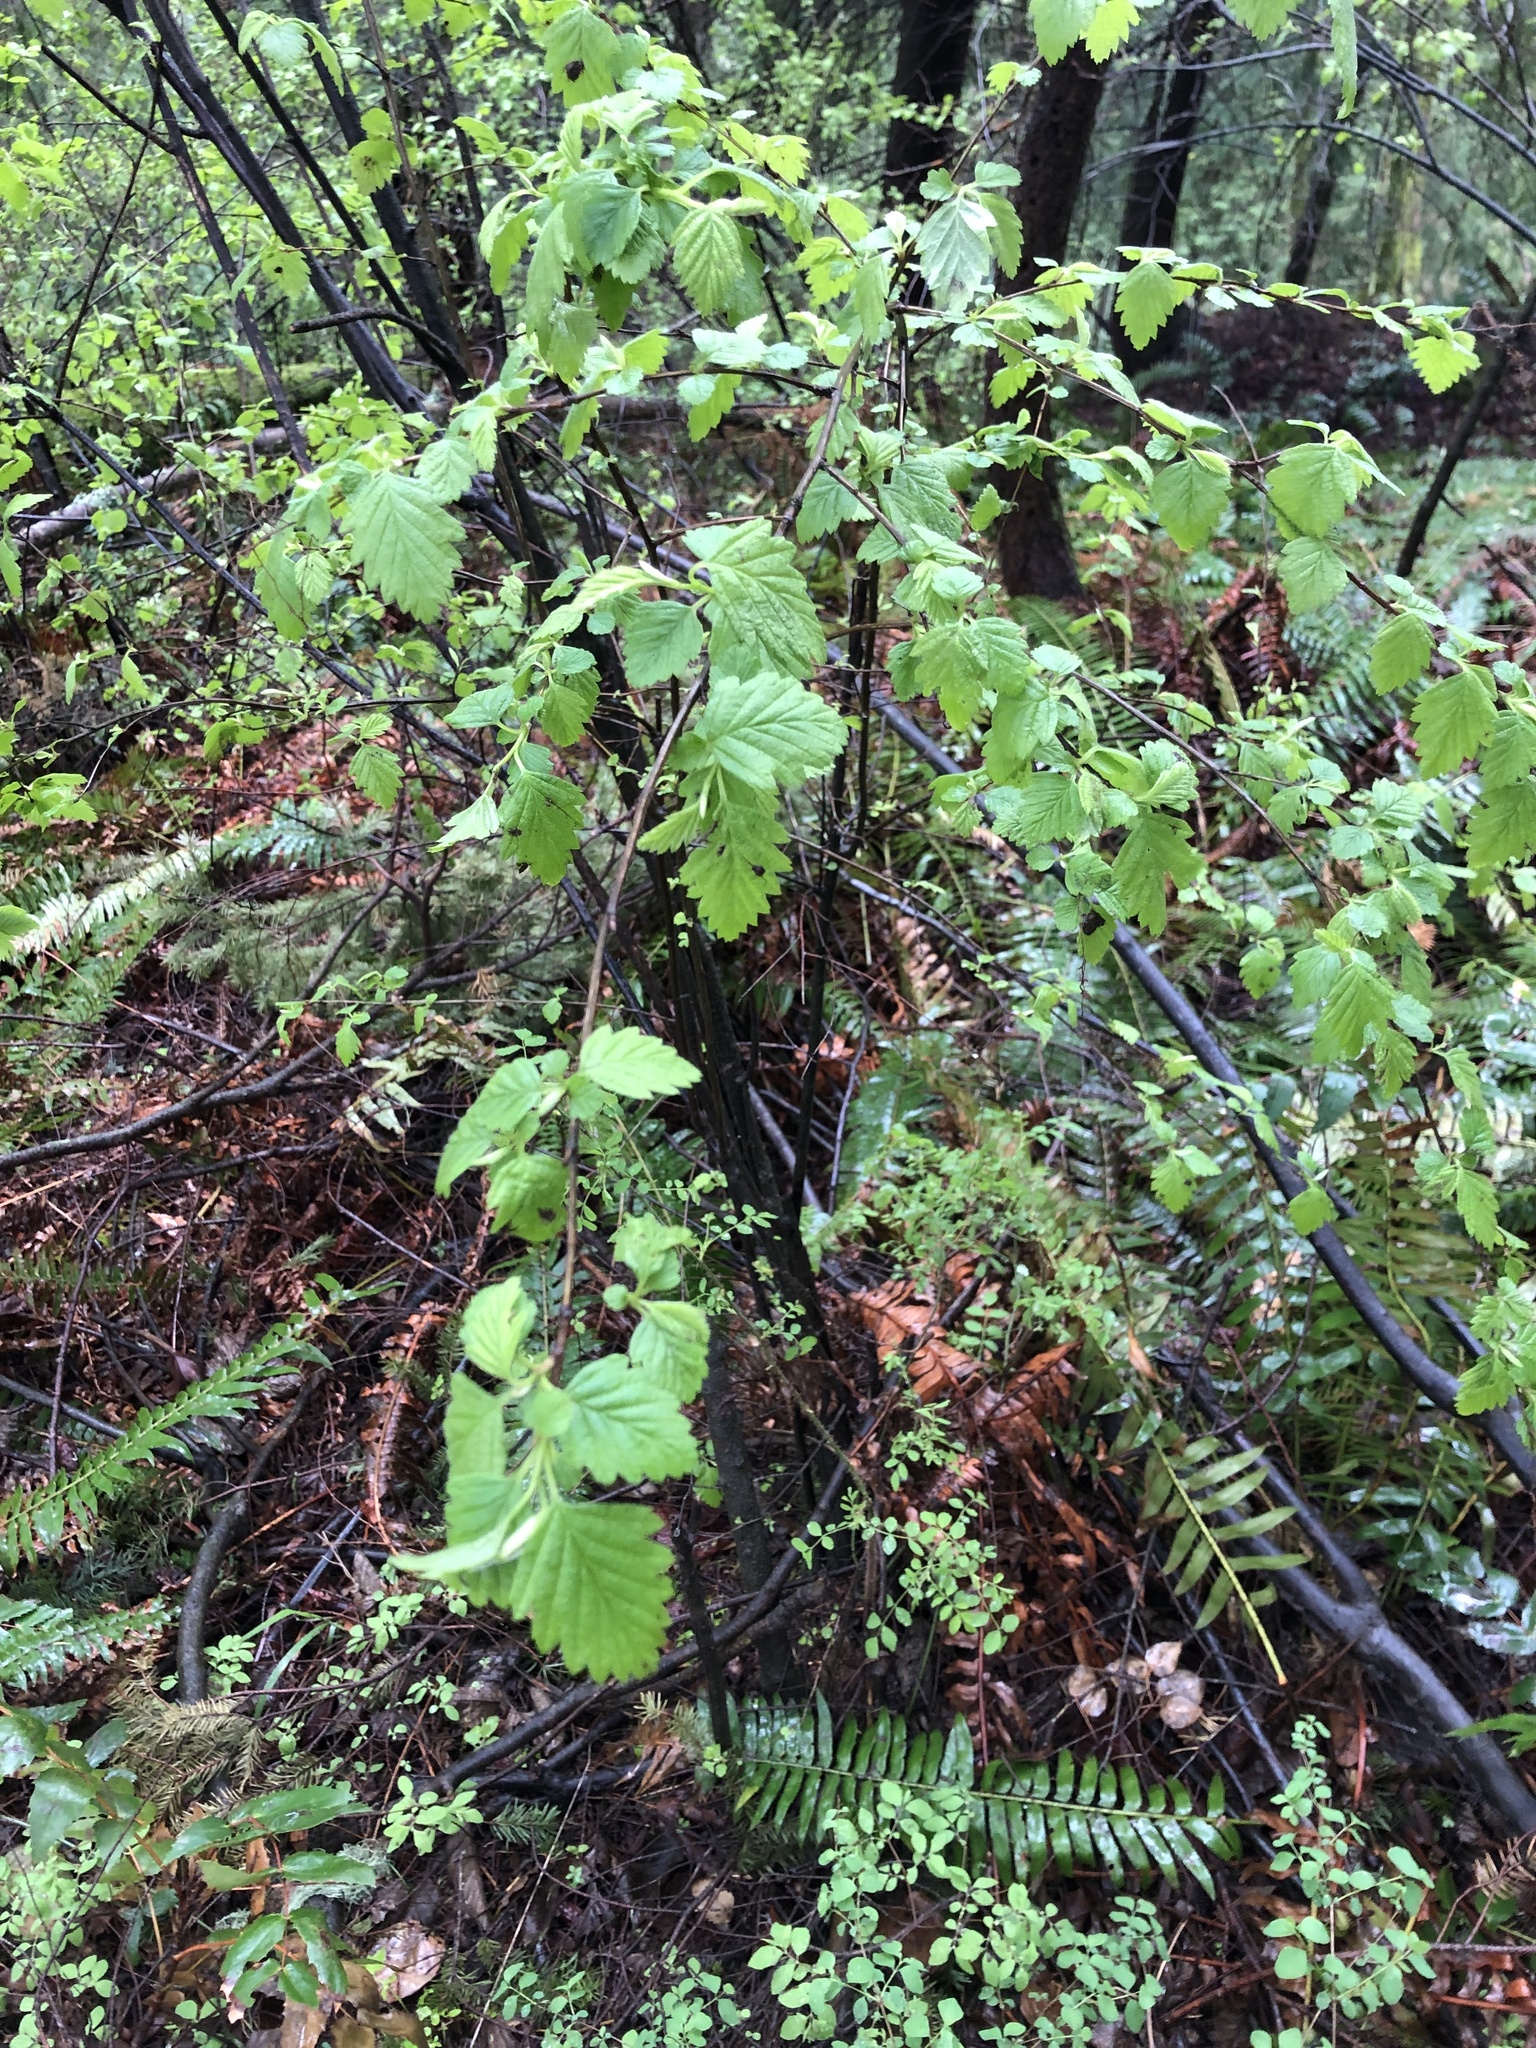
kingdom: Plantae
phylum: Tracheophyta
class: Magnoliopsida
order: Rosales
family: Rosaceae
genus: Holodiscus
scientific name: Holodiscus discolor
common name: Oceanspray
